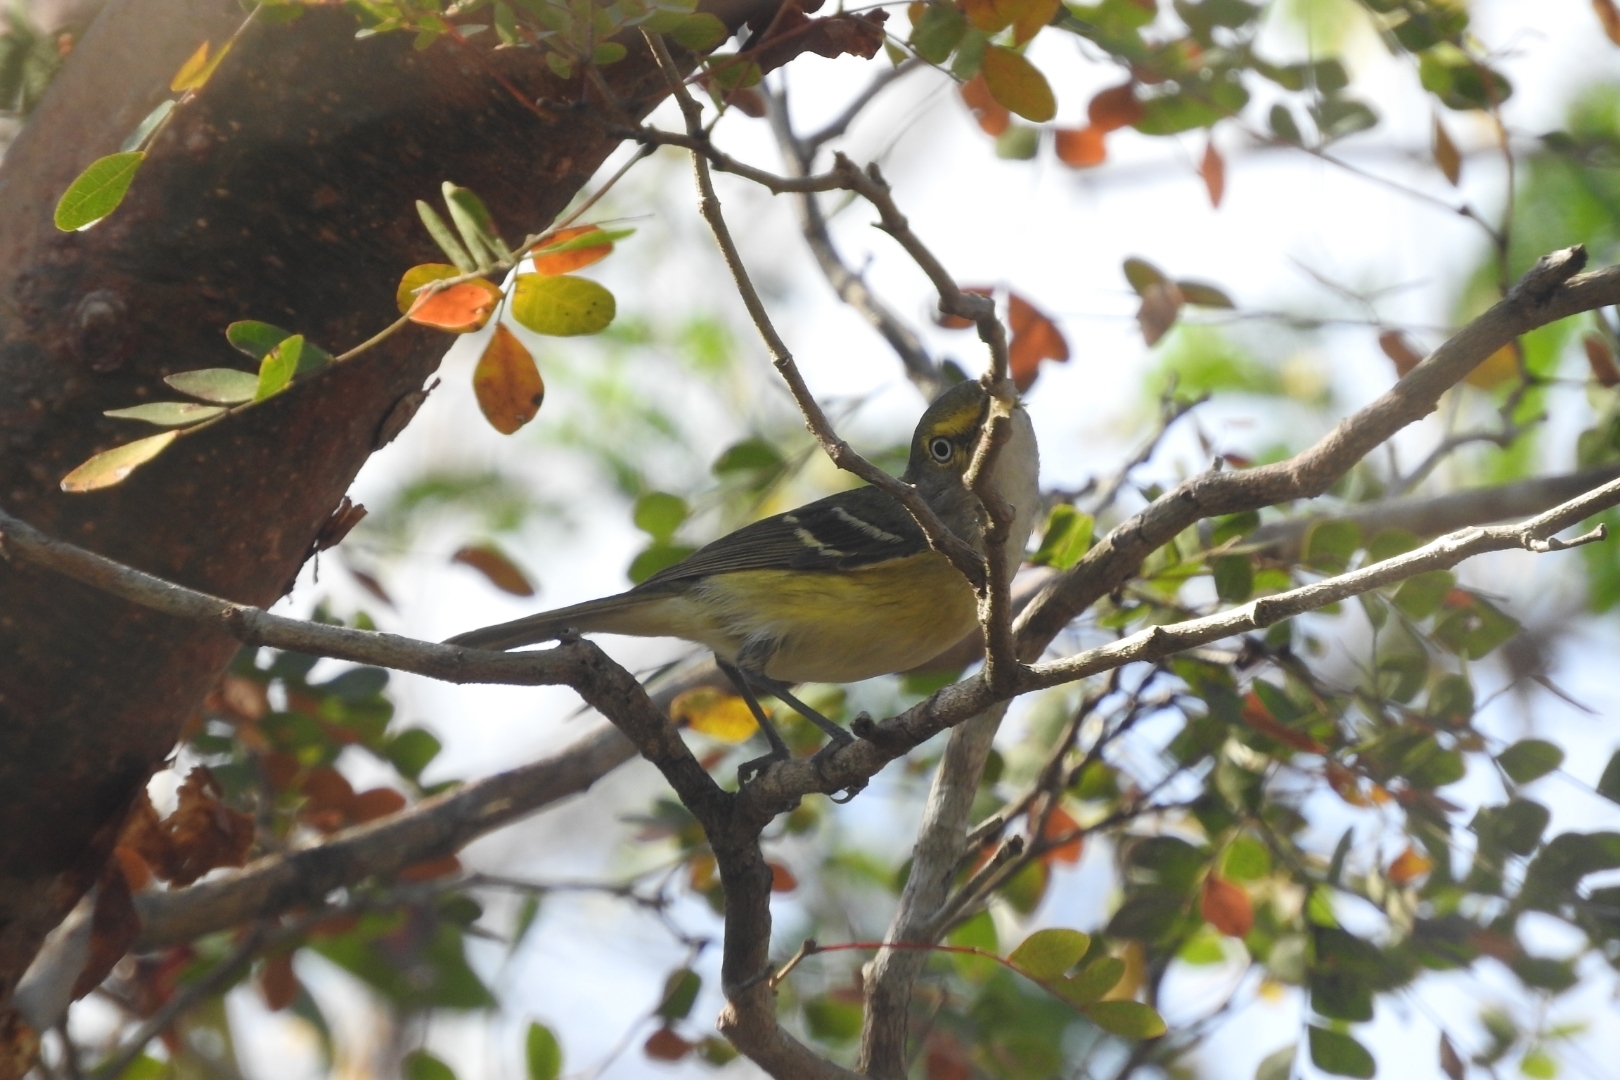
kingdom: Animalia
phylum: Chordata
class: Aves
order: Passeriformes
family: Vireonidae
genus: Vireo
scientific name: Vireo griseus
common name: White-eyed vireo
